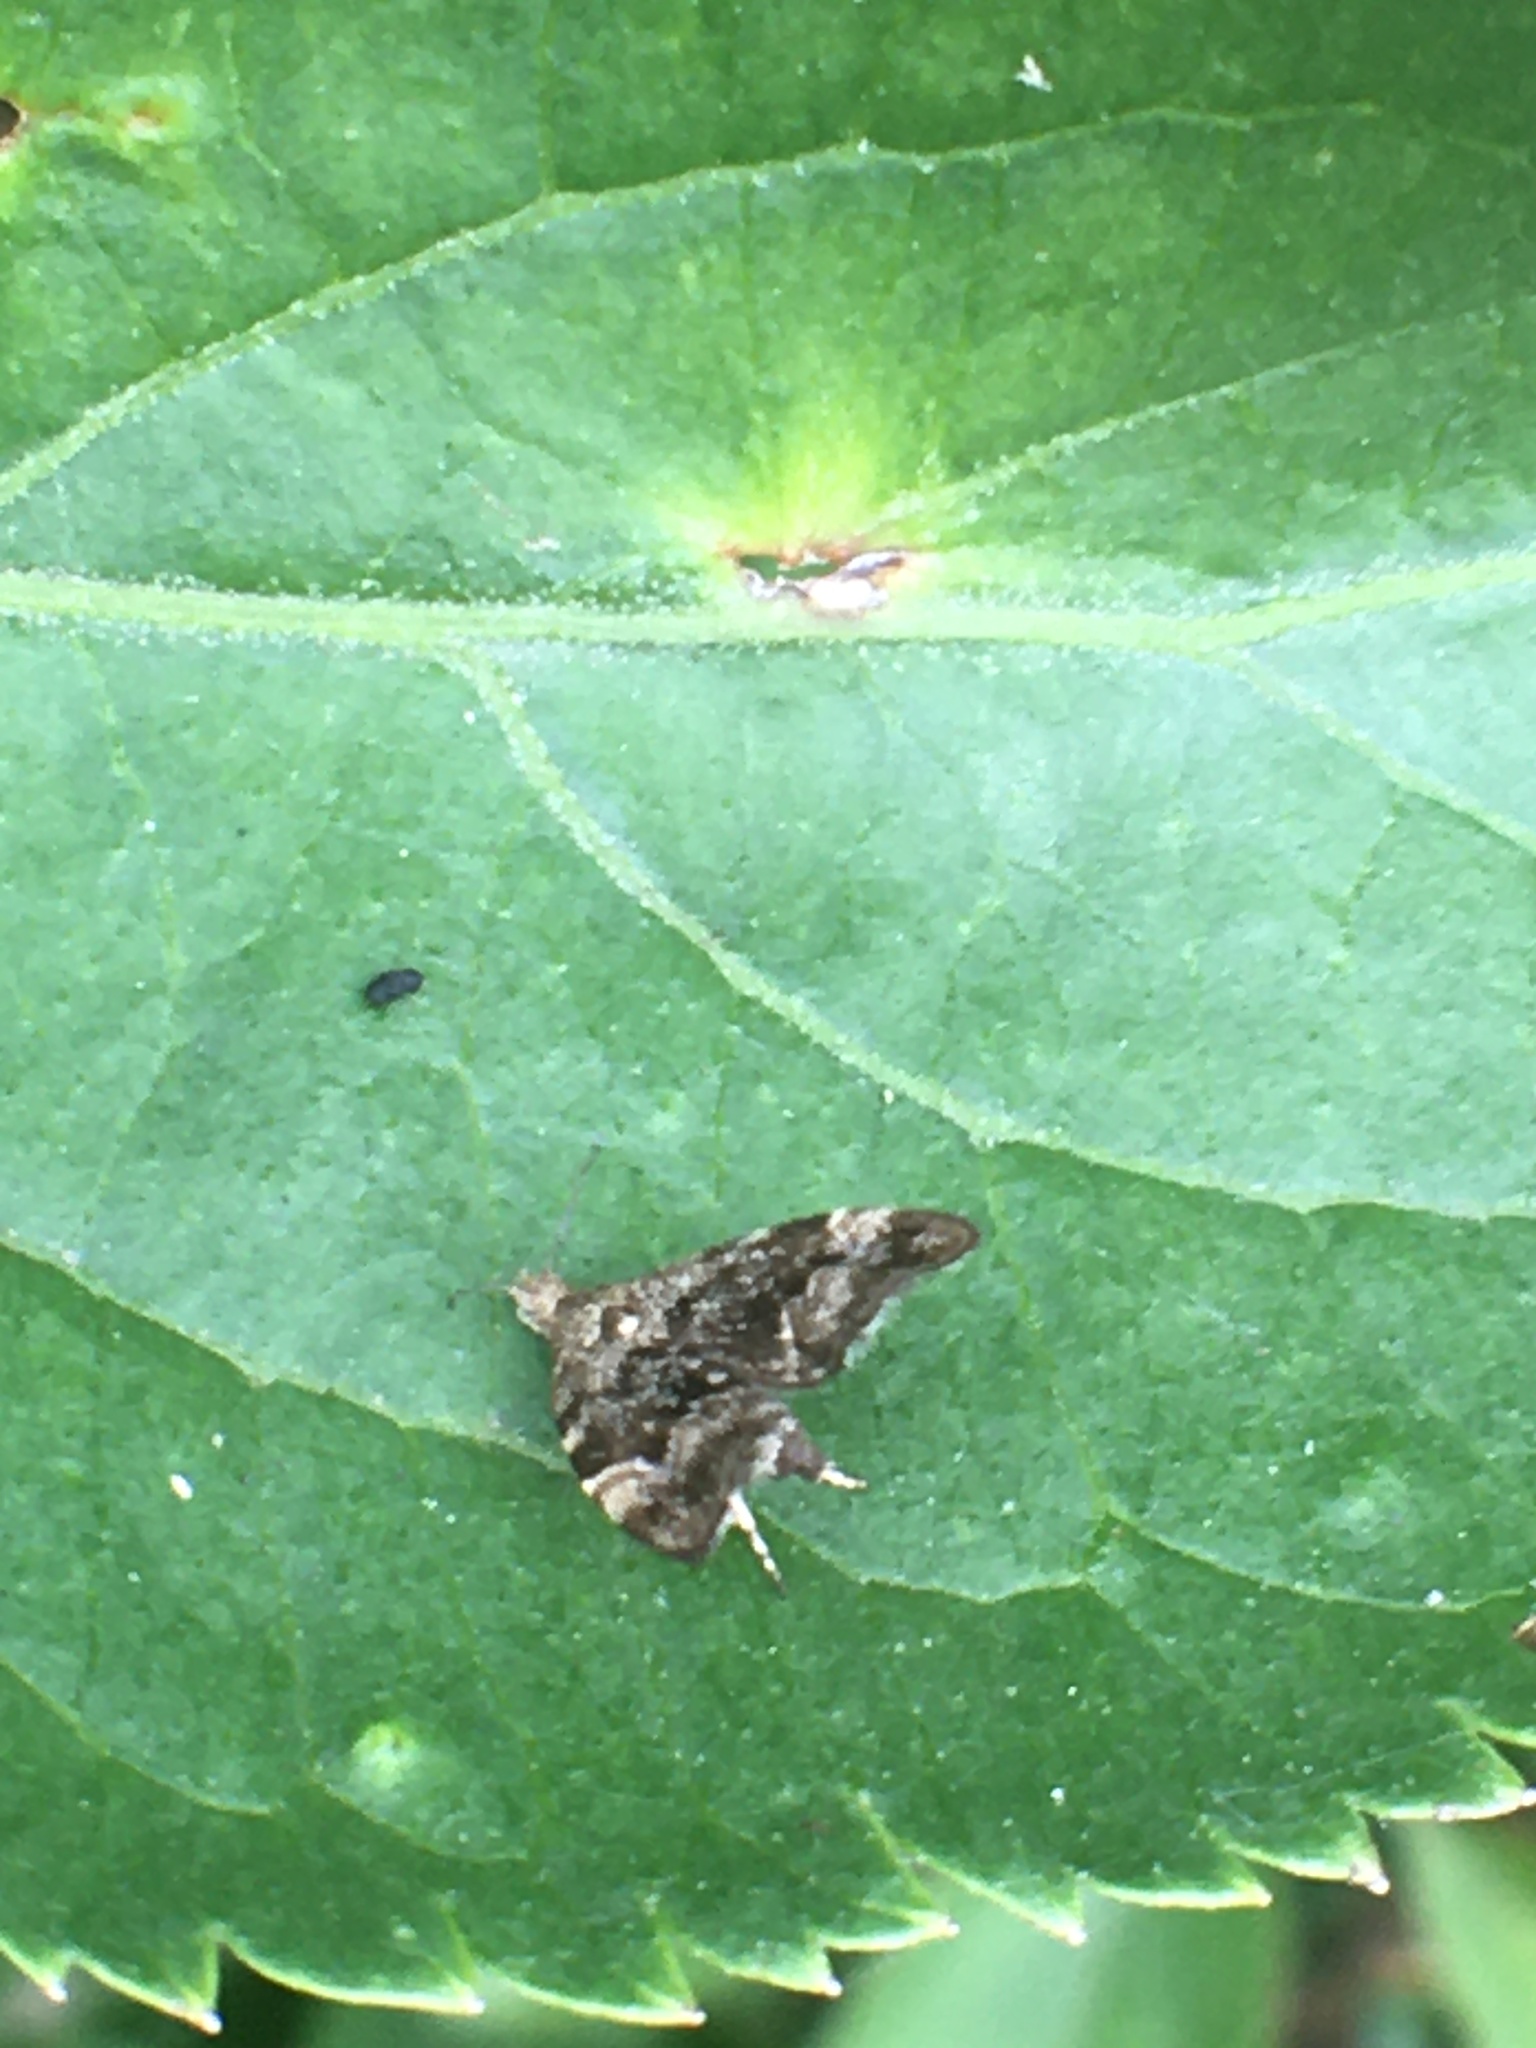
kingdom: Animalia
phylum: Arthropoda
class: Insecta
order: Lepidoptera
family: Choreutidae
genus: Anthophila
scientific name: Anthophila fabriciana
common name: Nettle-tap
